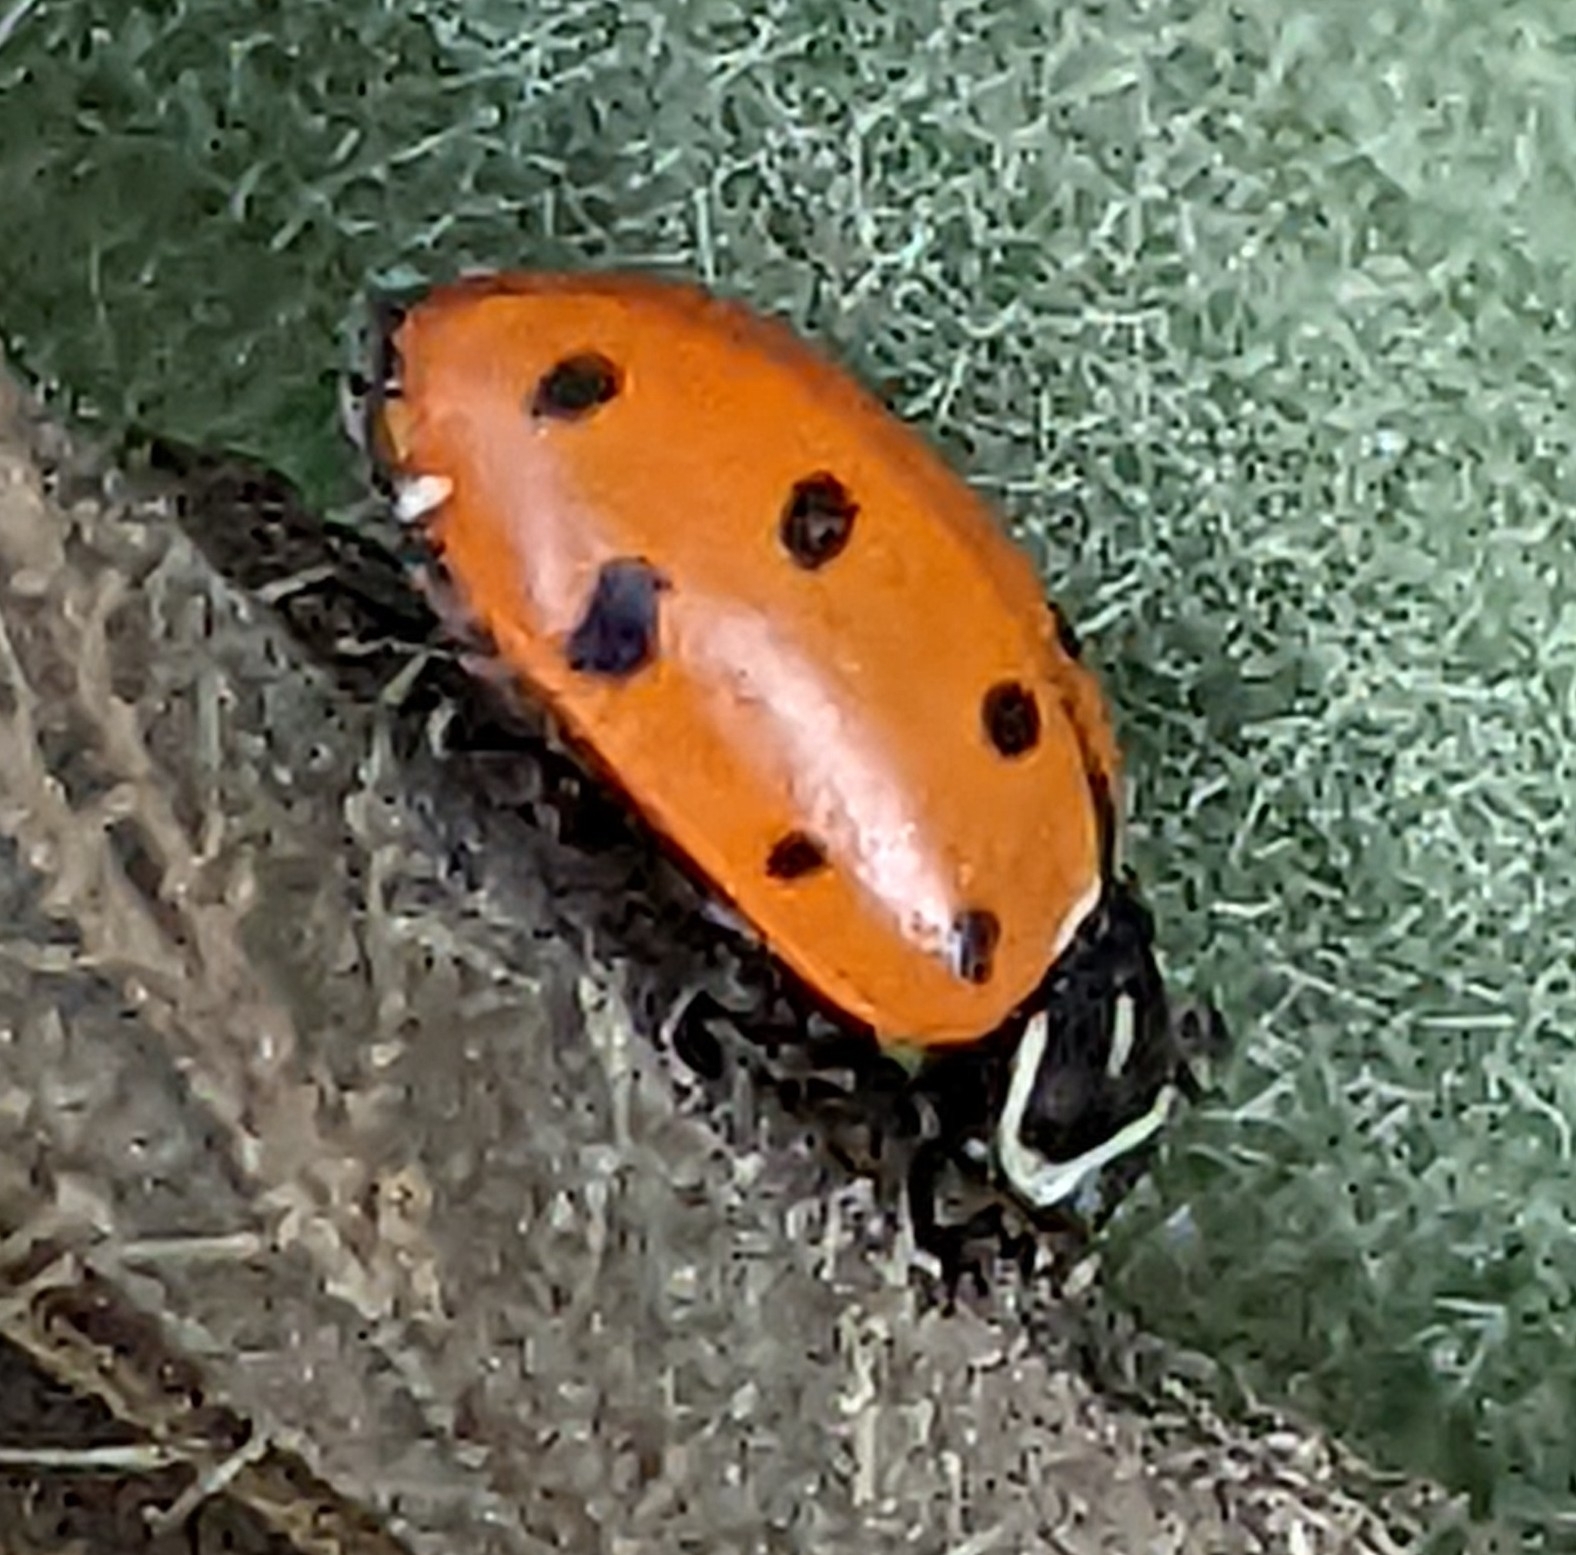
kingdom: Animalia
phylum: Arthropoda
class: Insecta
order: Coleoptera
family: Coccinellidae
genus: Hippodamia
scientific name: Hippodamia convergens
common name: Convergent lady beetle
